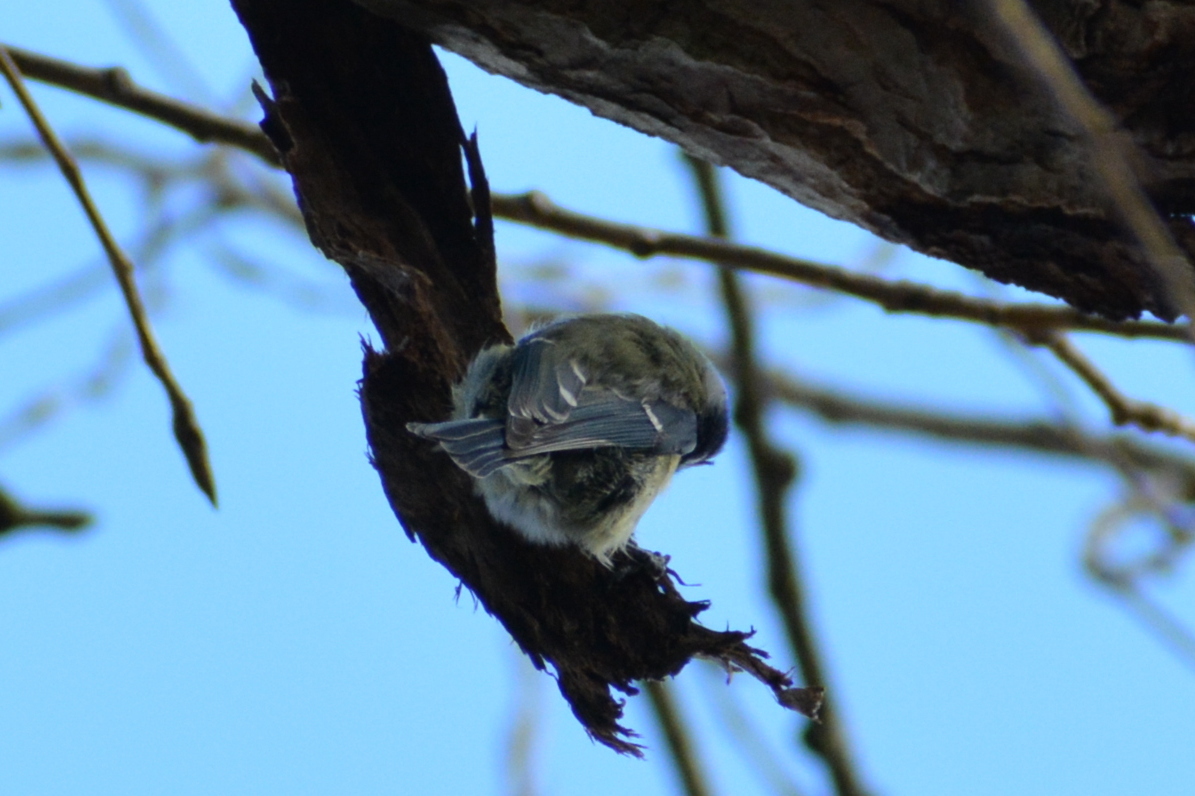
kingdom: Animalia
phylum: Chordata
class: Aves
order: Passeriformes
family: Paridae
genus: Parus
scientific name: Parus major
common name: Great tit
